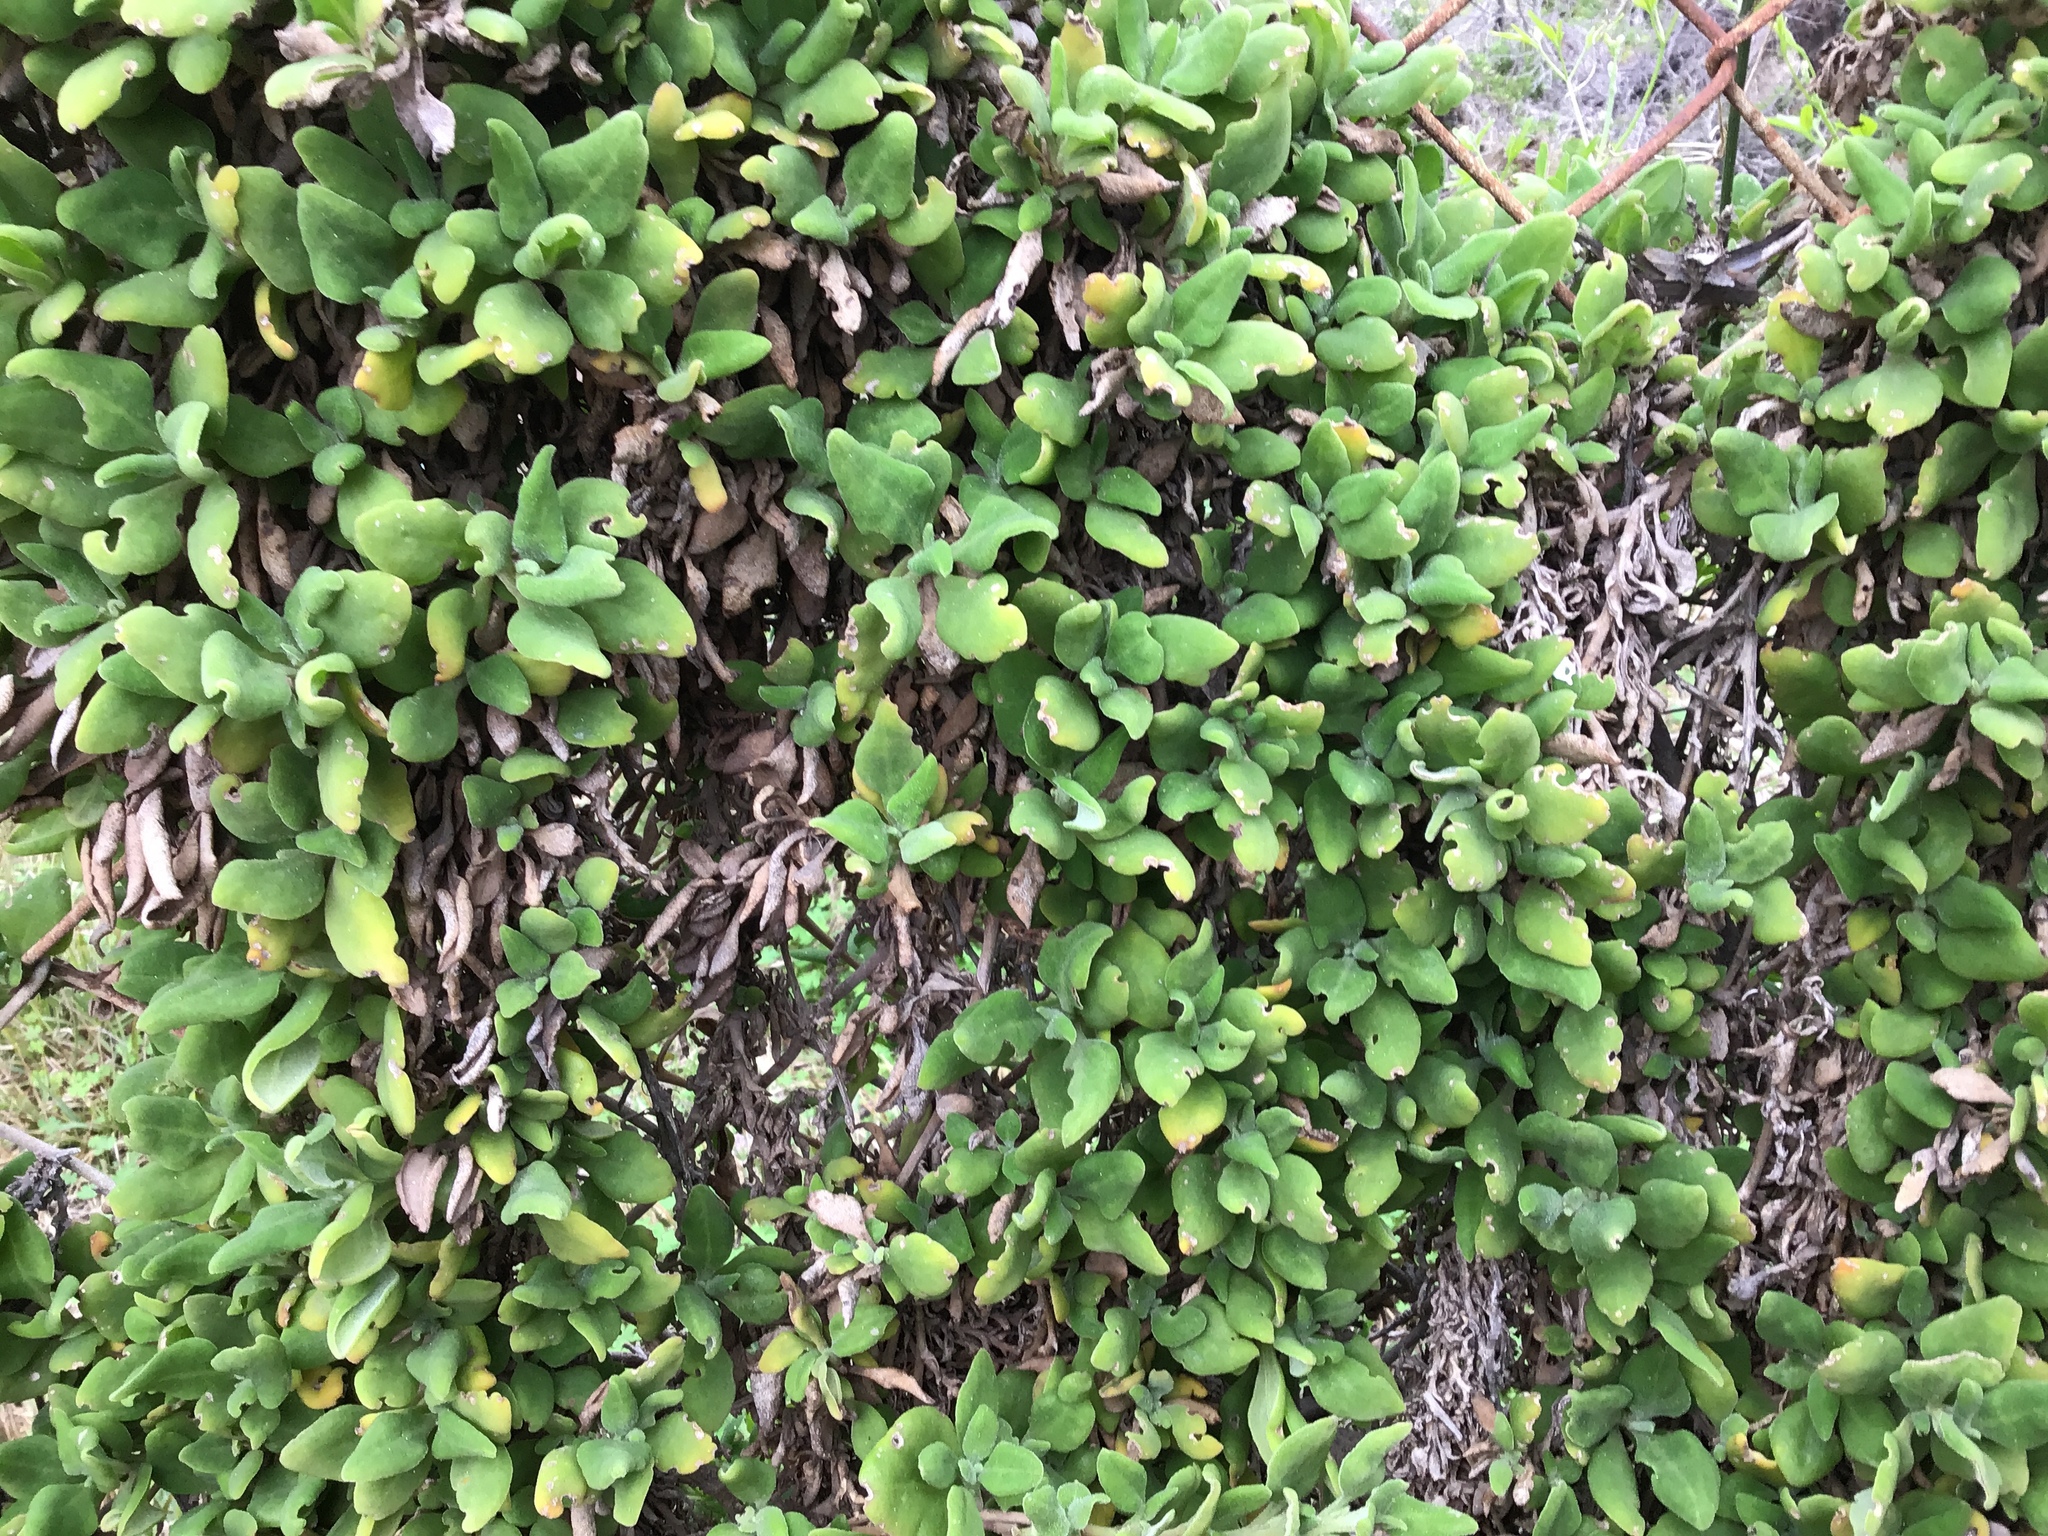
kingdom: Plantae
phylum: Tracheophyta
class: Magnoliopsida
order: Caryophyllales
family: Aizoaceae
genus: Tetragonia
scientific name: Tetragonia implexicoma
